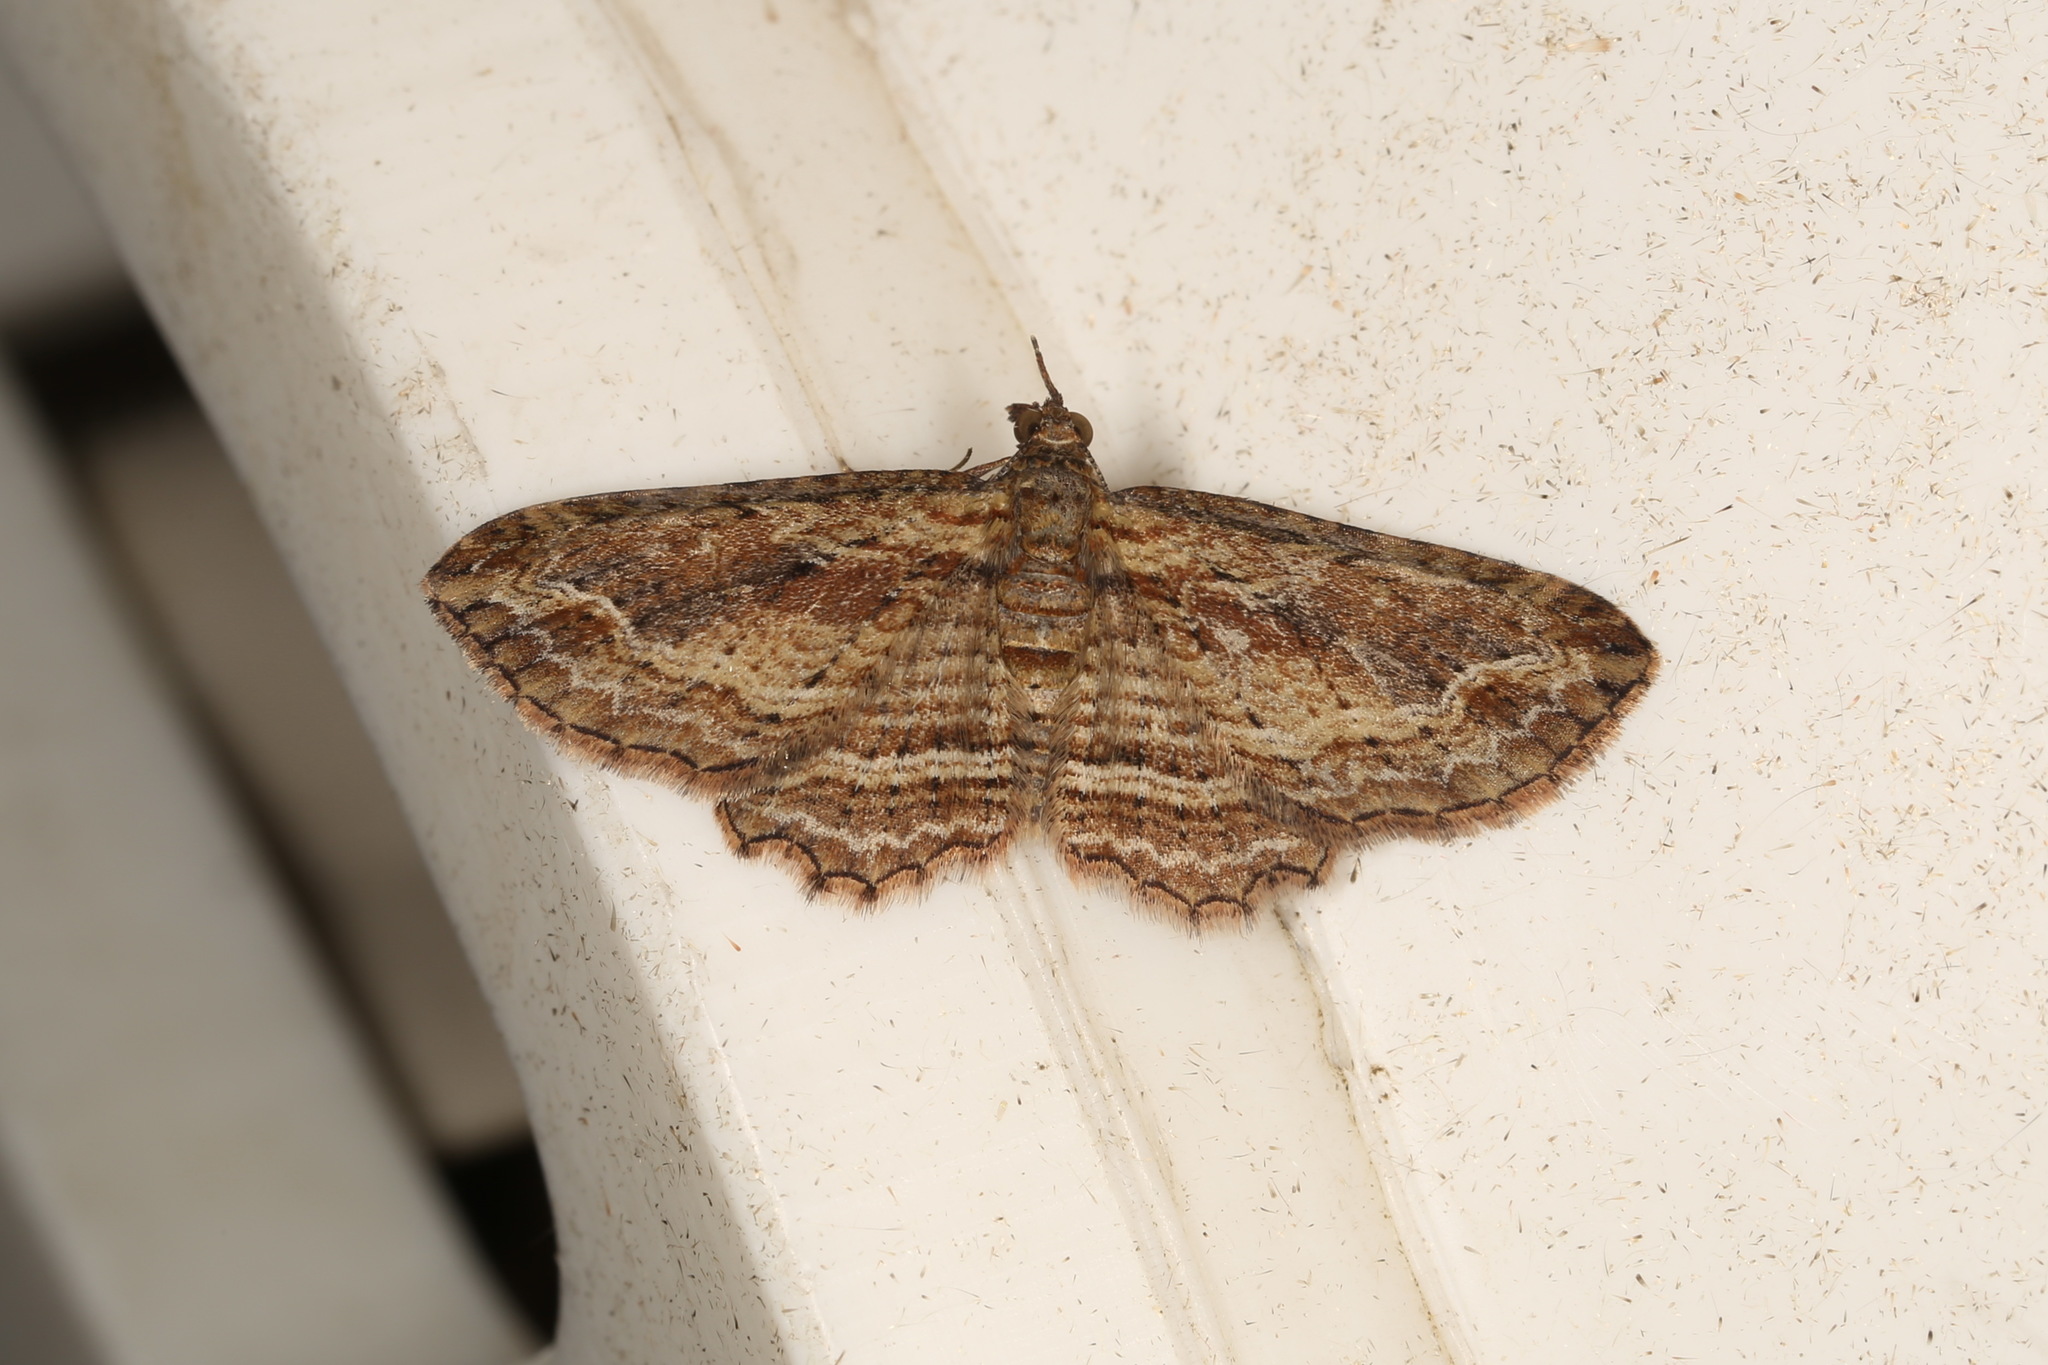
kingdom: Animalia
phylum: Arthropoda
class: Insecta
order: Lepidoptera
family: Geometridae
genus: Chloroclystis
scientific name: Chloroclystis filata
